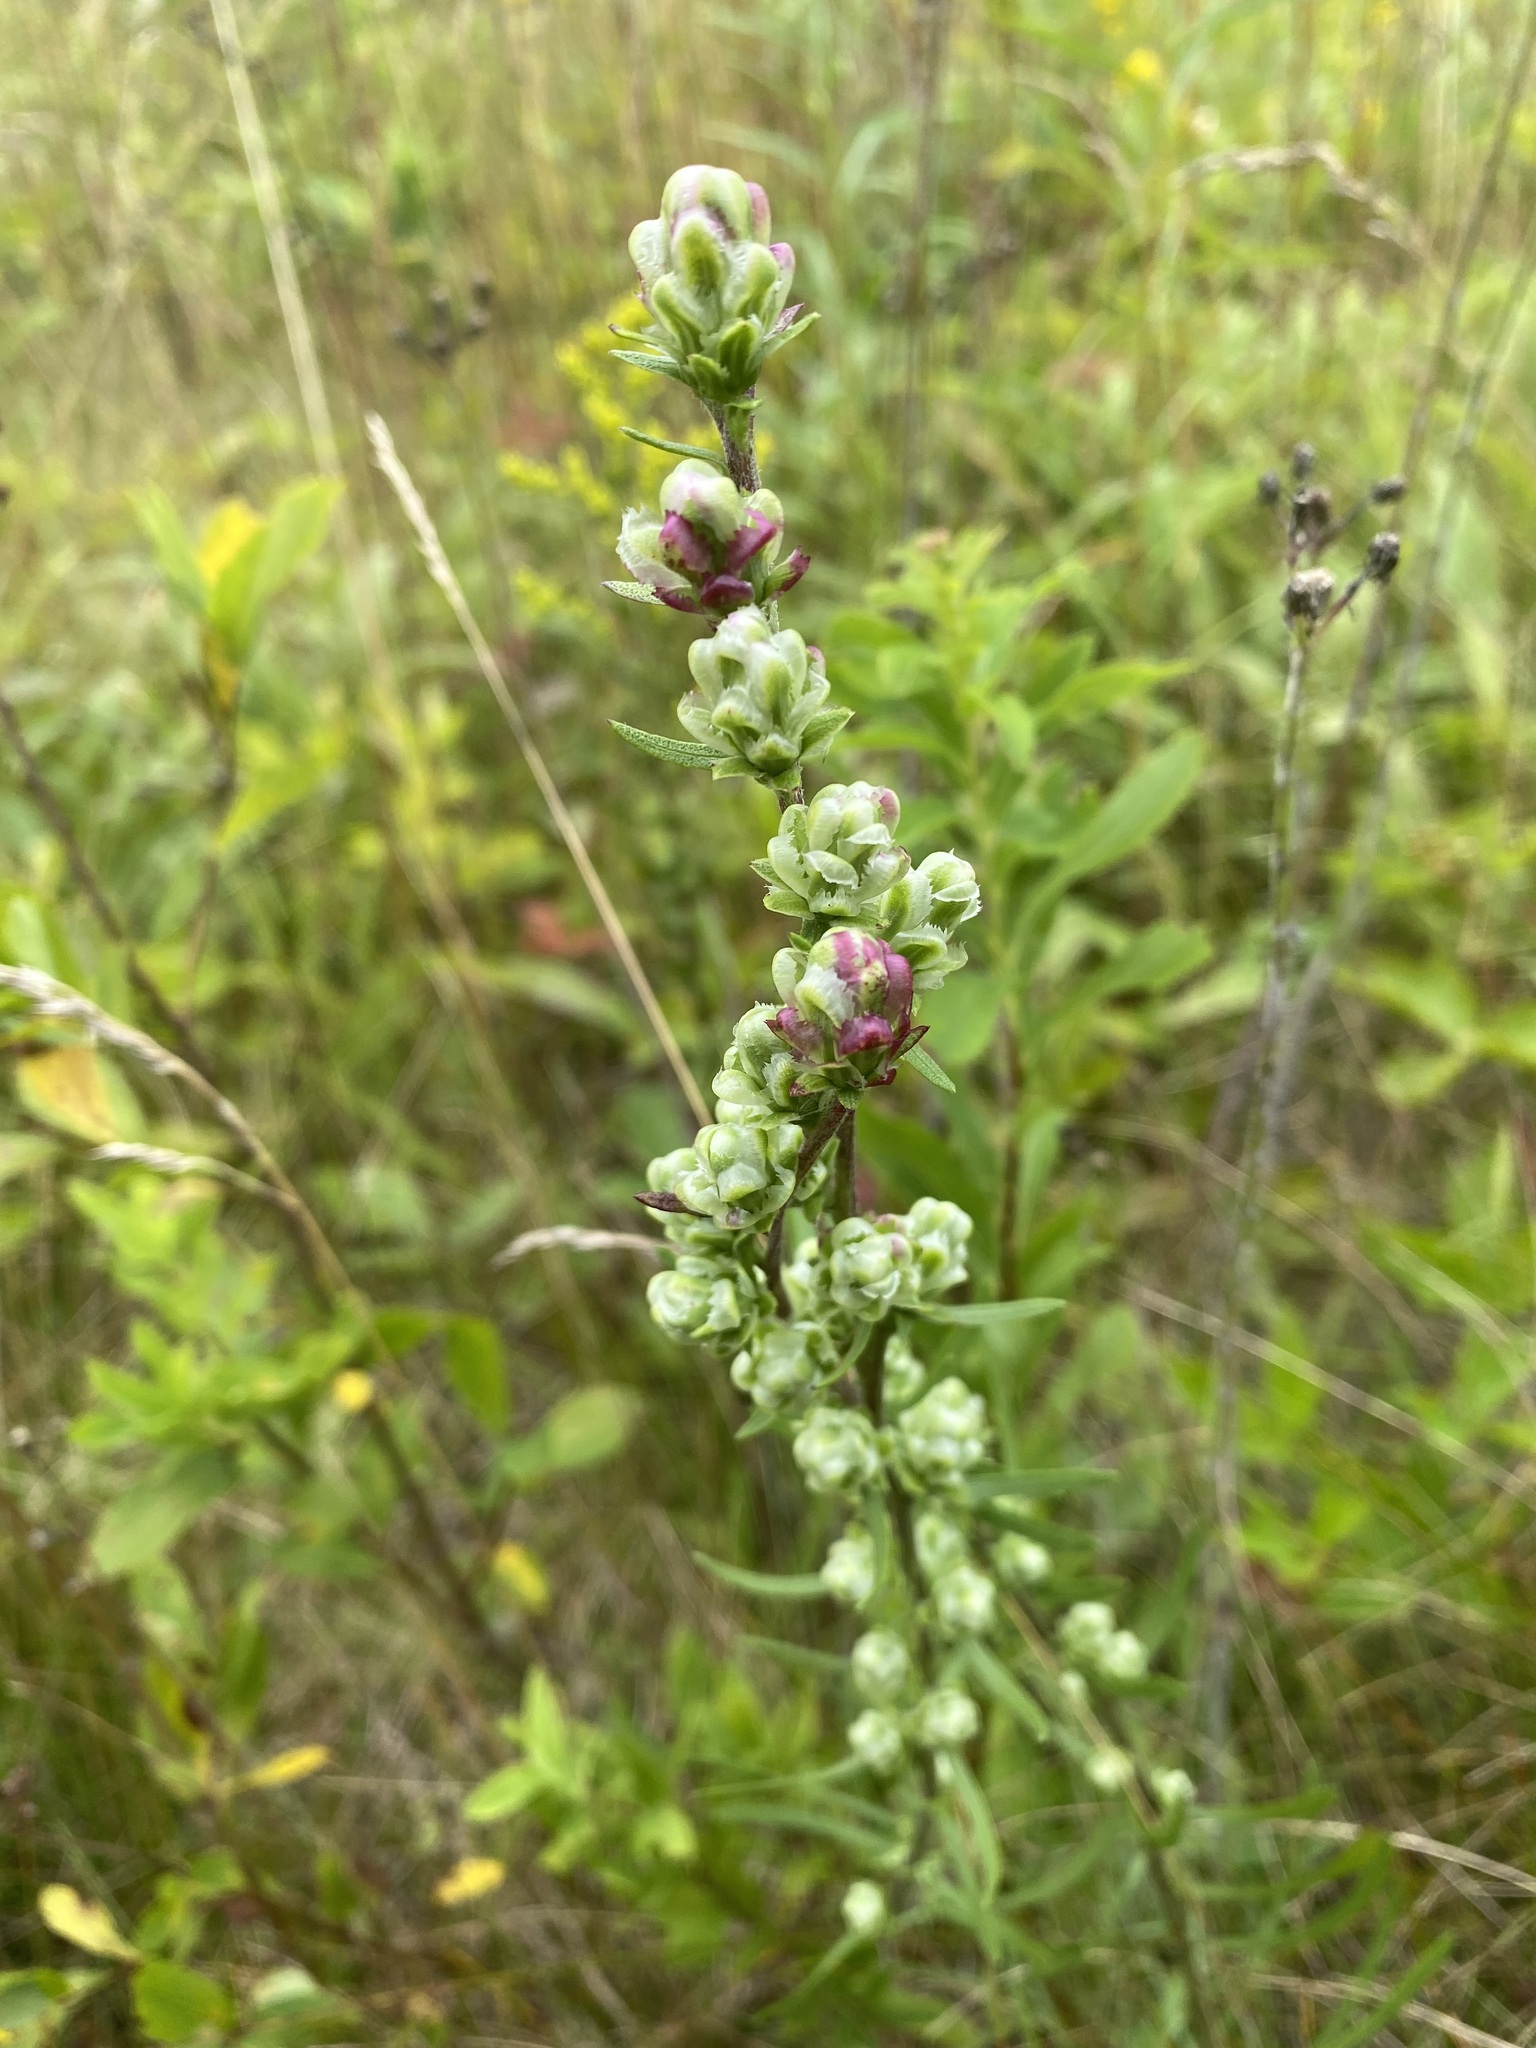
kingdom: Plantae
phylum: Tracheophyta
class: Magnoliopsida
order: Asterales
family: Asteraceae
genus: Liatris
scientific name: Liatris aspera
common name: Lacerate blazing-star
